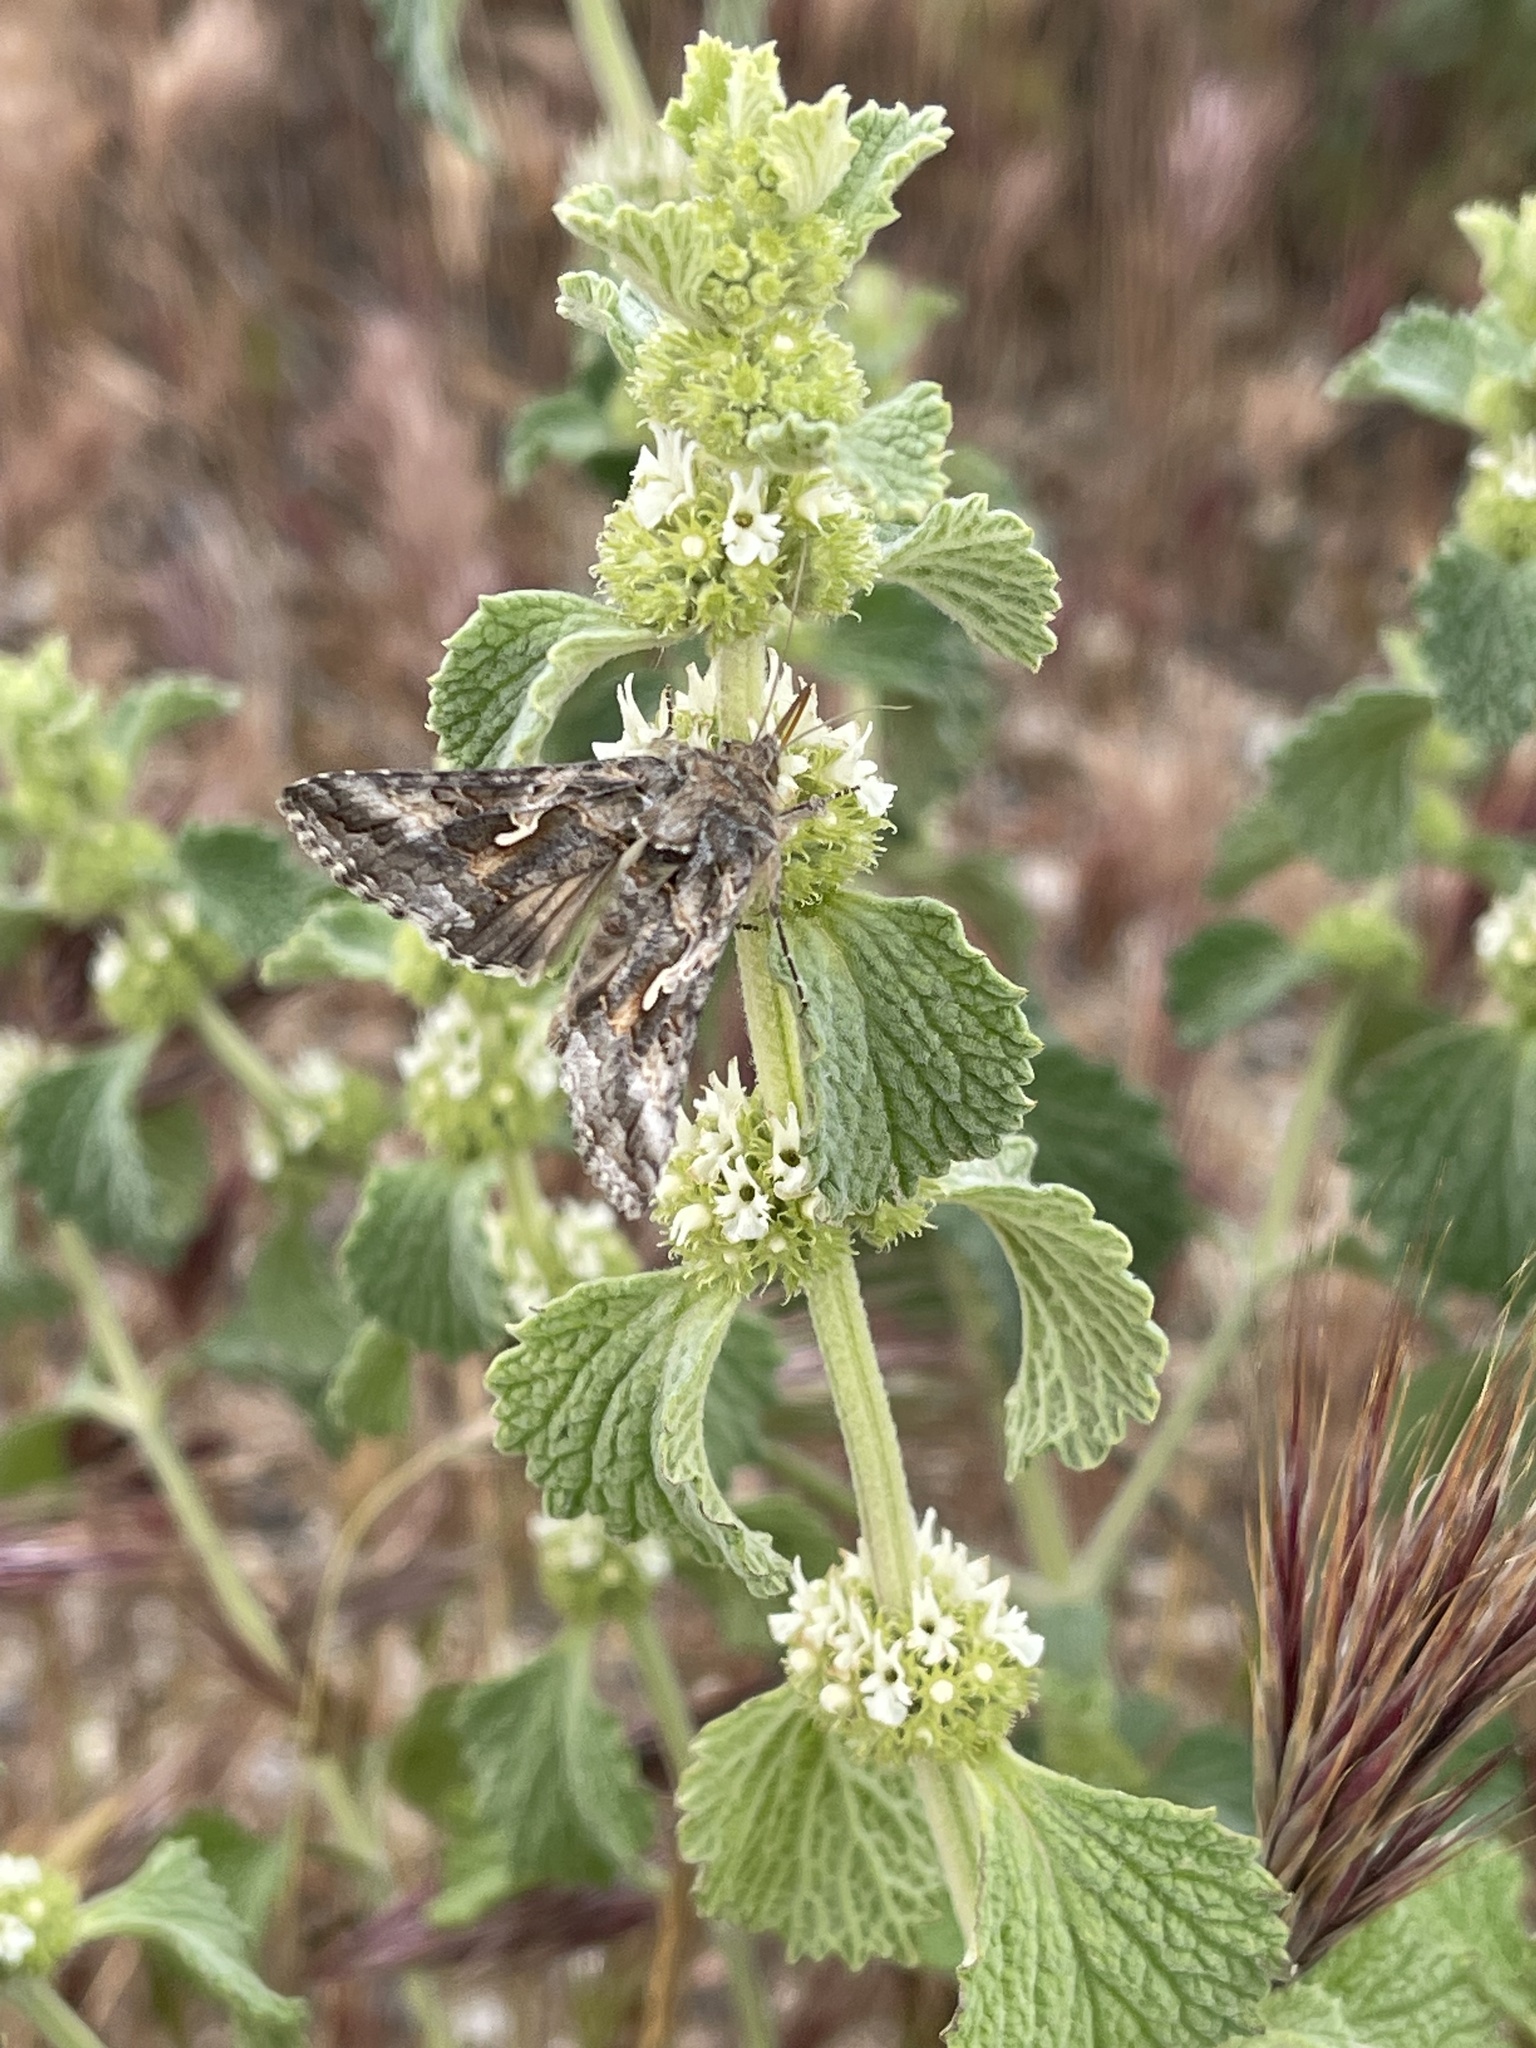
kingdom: Plantae
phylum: Tracheophyta
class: Magnoliopsida
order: Lamiales
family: Lamiaceae
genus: Marrubium
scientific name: Marrubium vulgare
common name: Horehound
